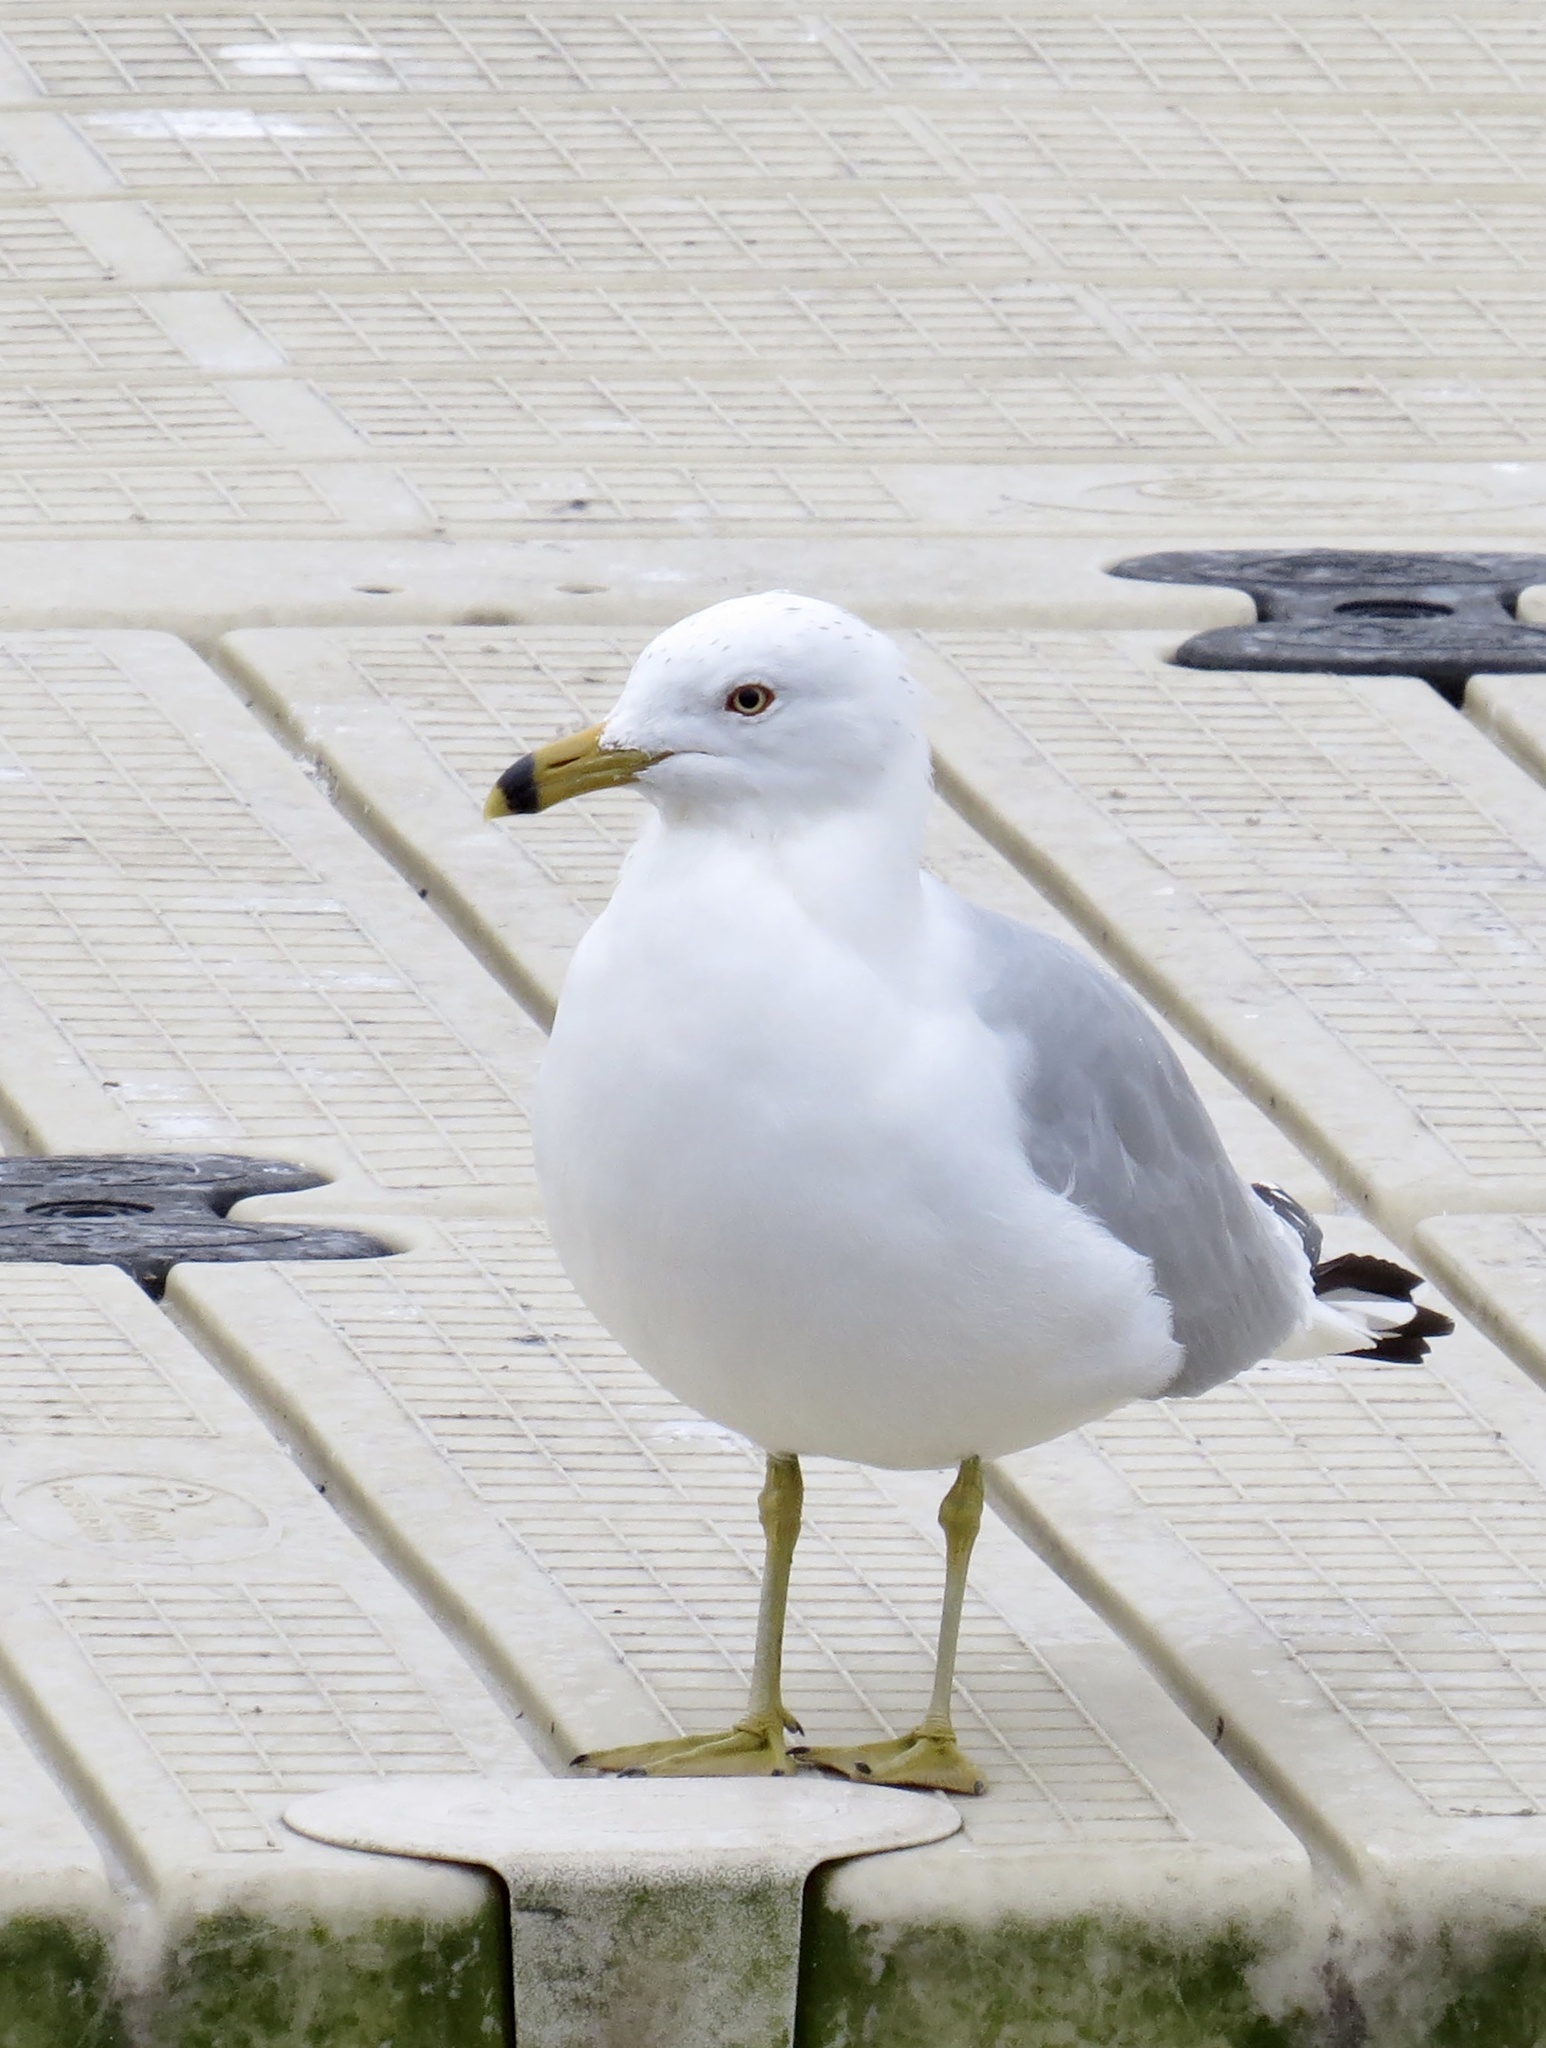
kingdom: Animalia
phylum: Chordata
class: Aves
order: Charadriiformes
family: Laridae
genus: Larus
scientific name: Larus delawarensis
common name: Ring-billed gull
